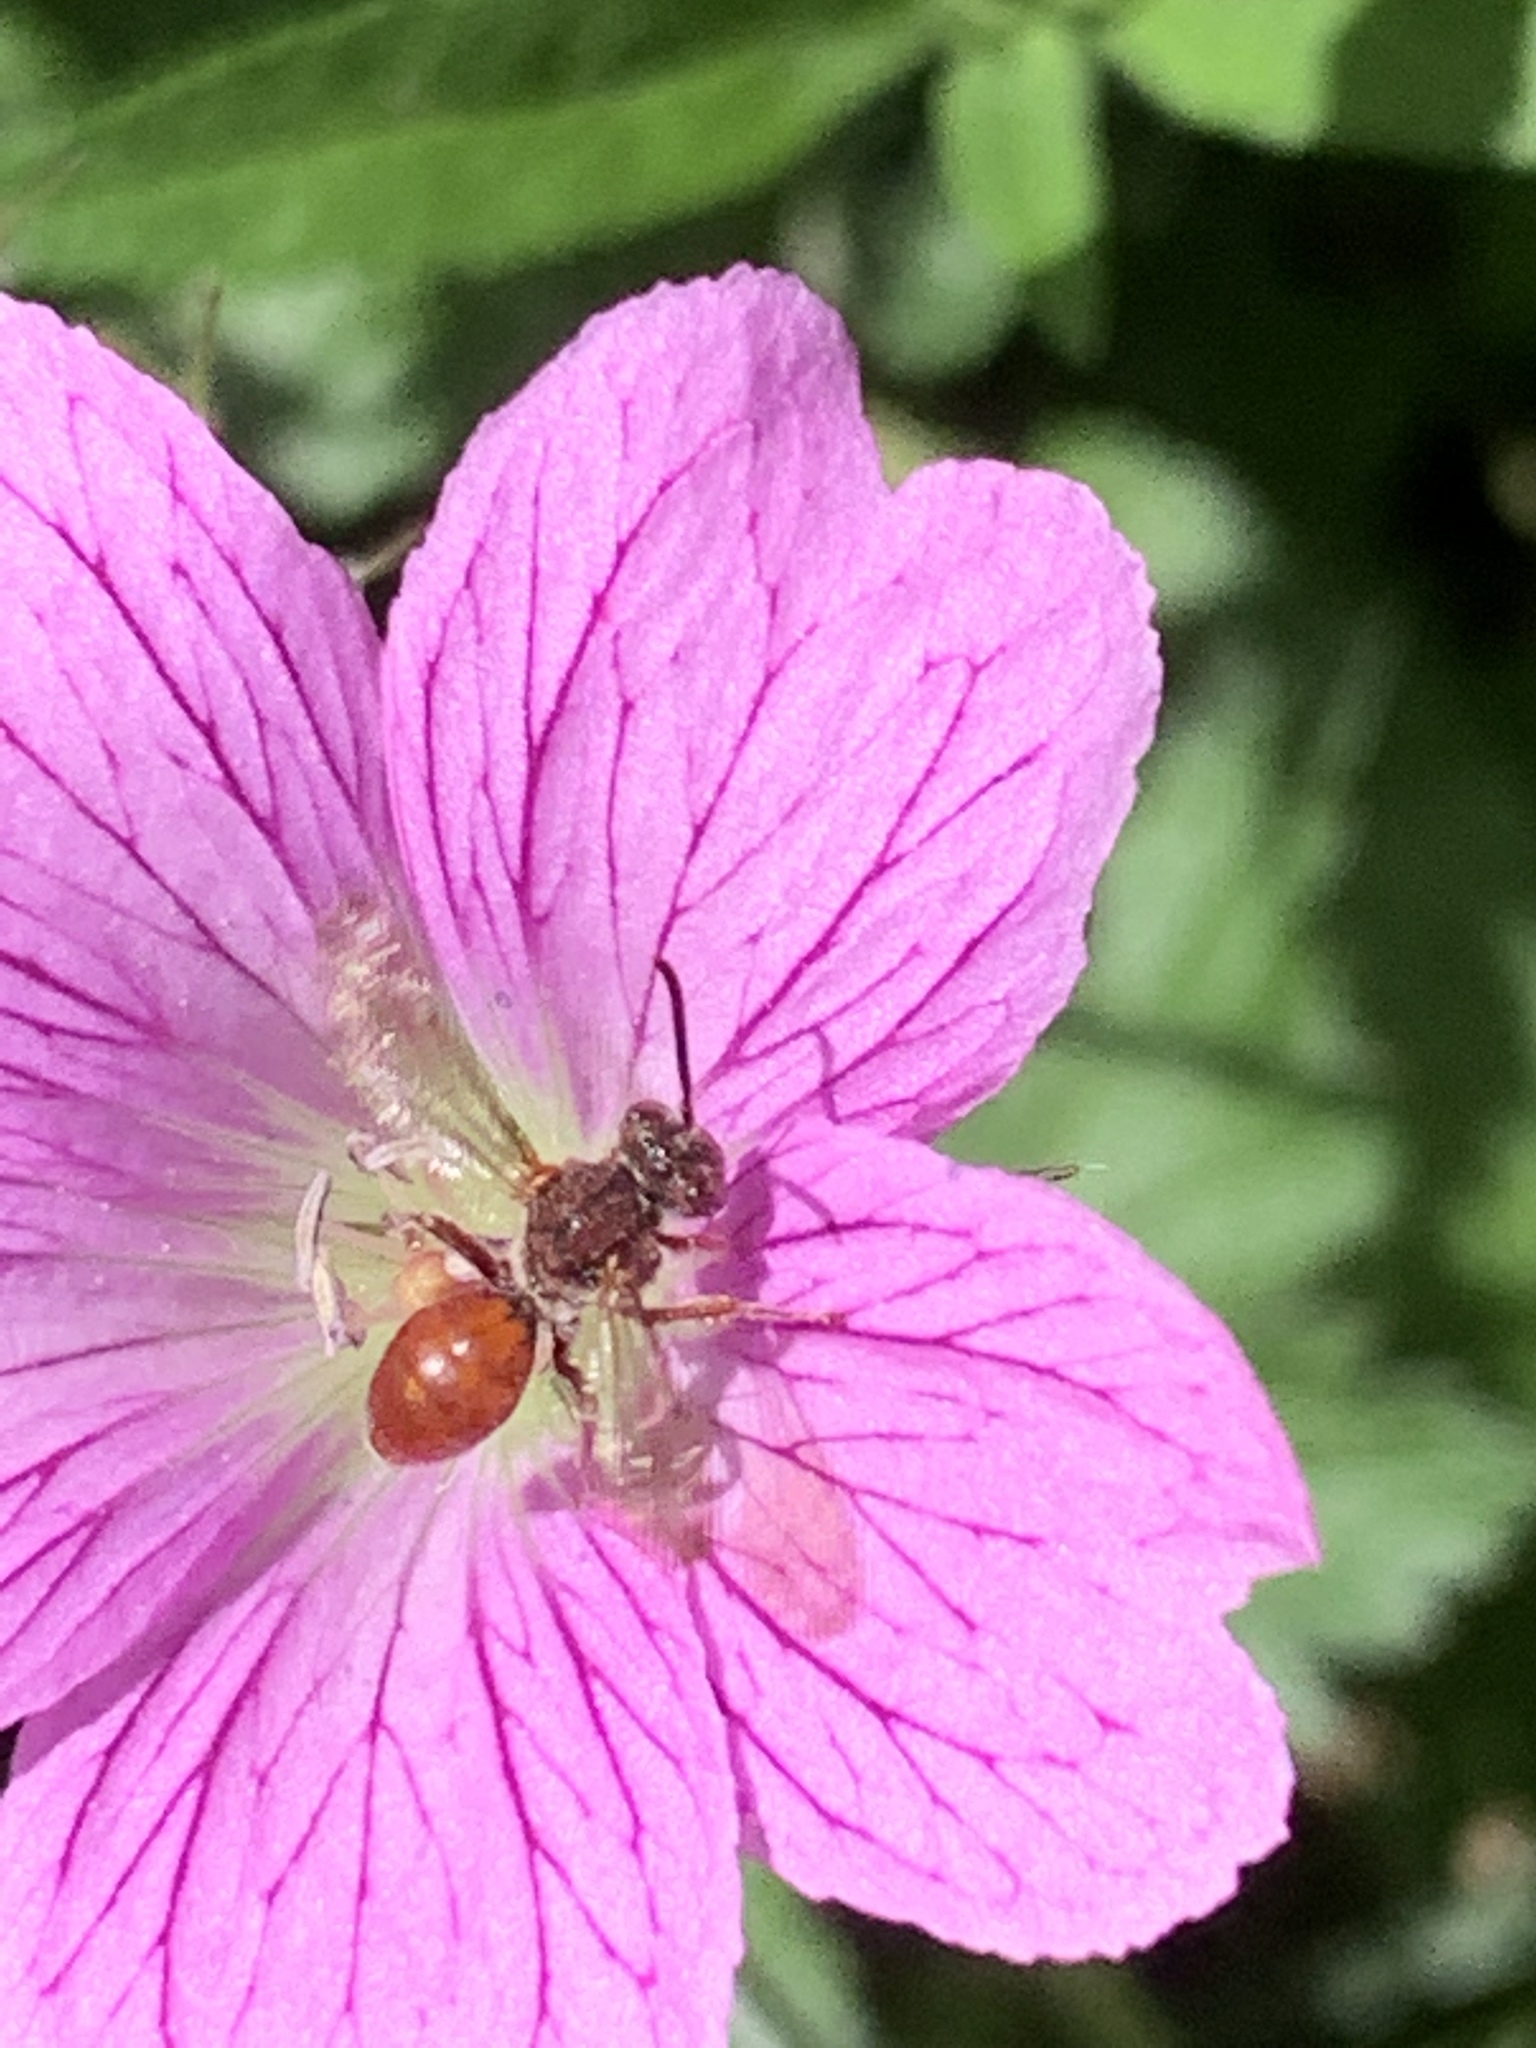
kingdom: Animalia
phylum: Arthropoda
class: Insecta
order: Hymenoptera
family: Apidae
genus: Nomada
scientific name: Nomada
